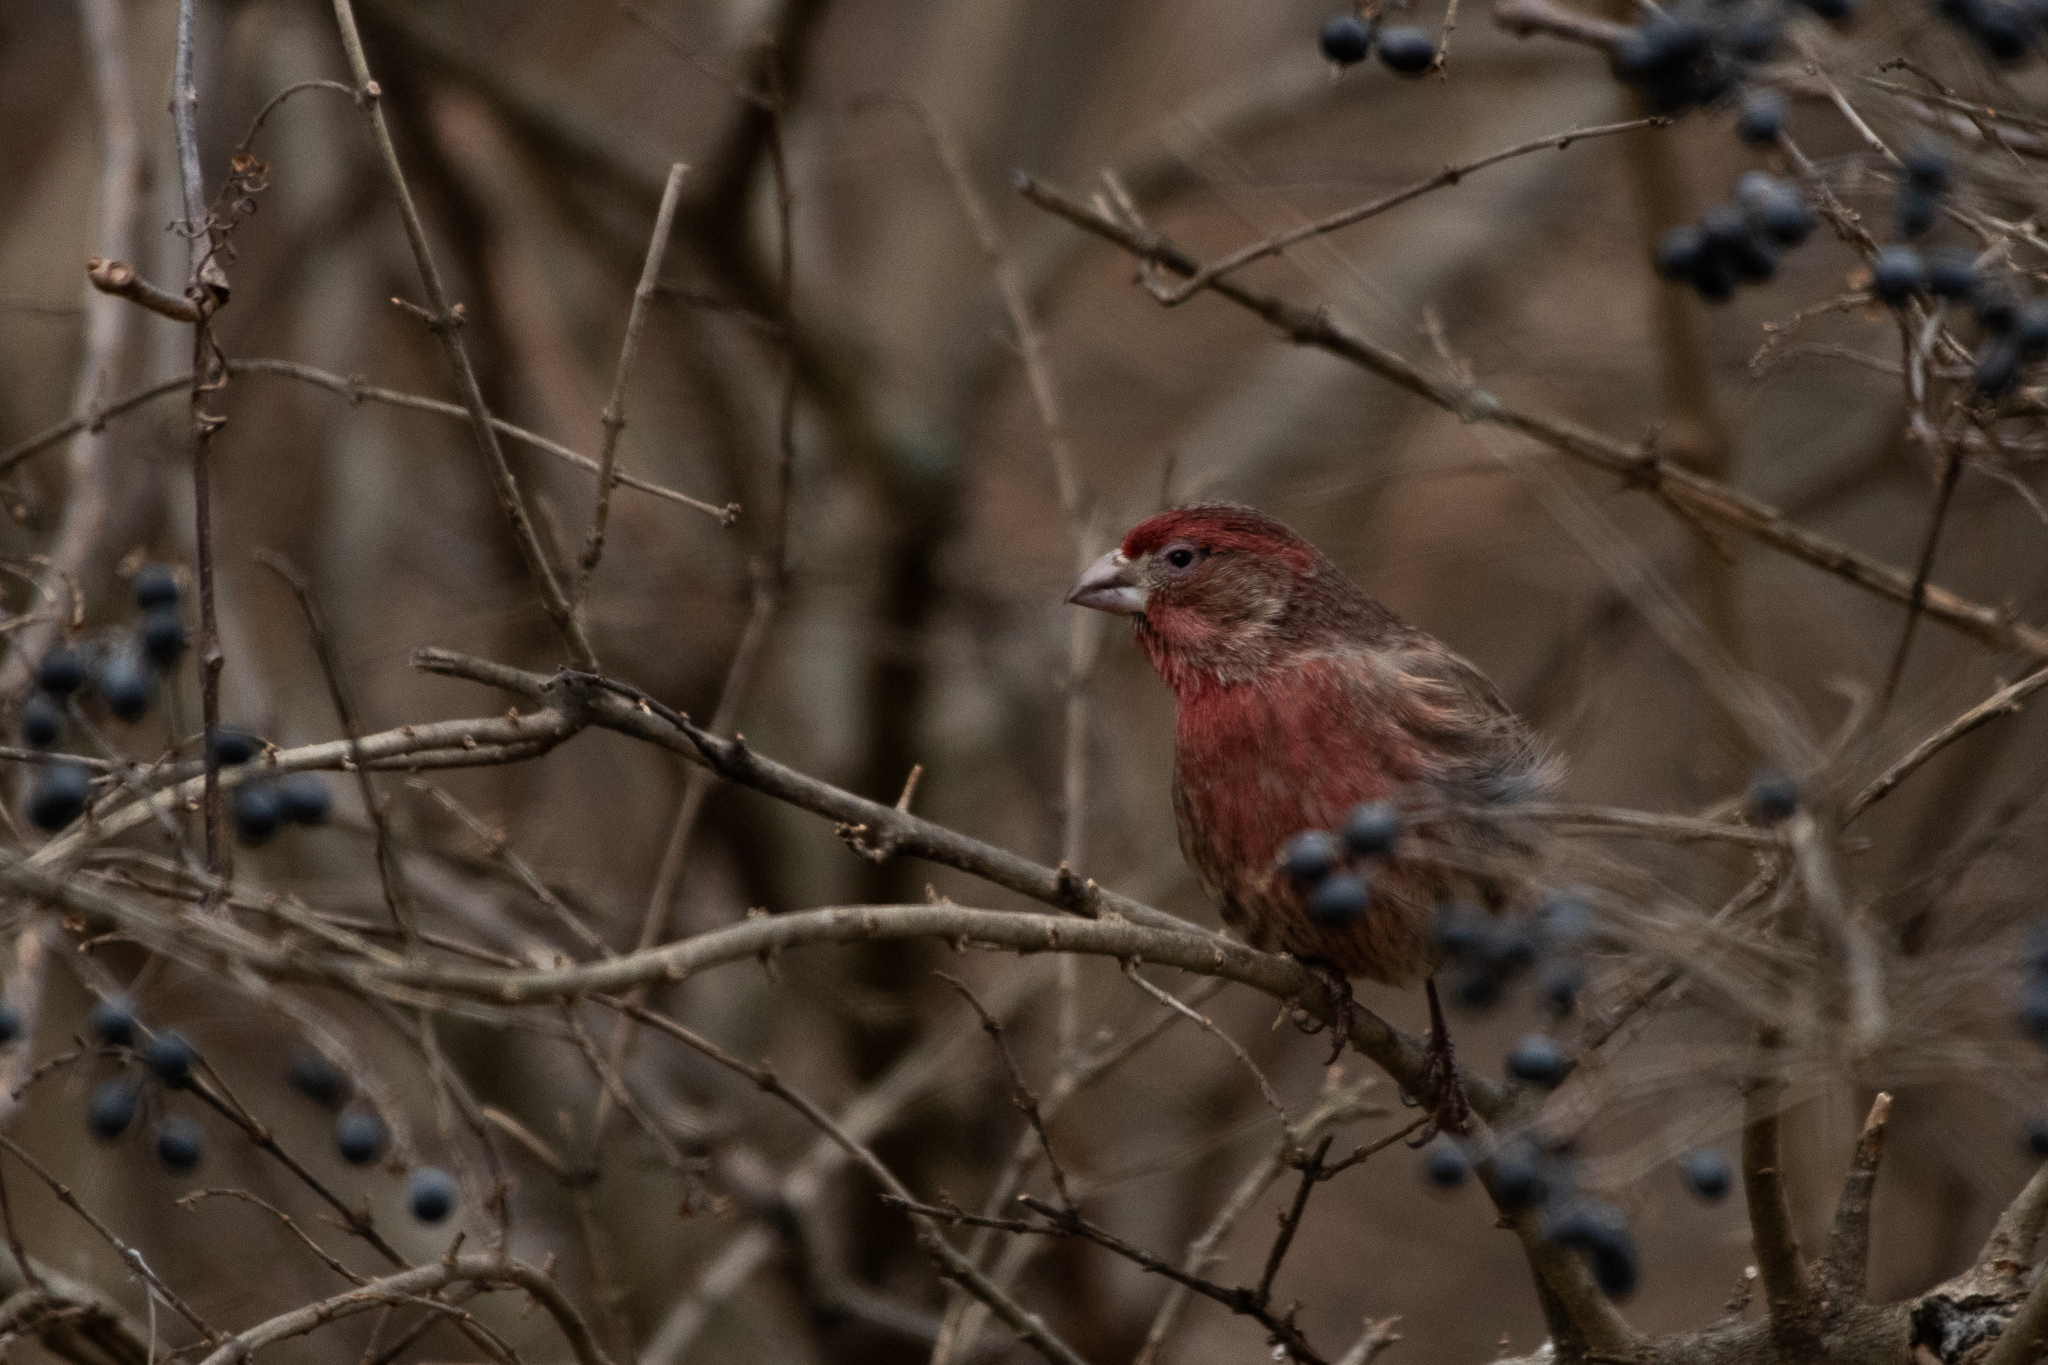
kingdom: Animalia
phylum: Chordata
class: Aves
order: Passeriformes
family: Fringillidae
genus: Haemorhous
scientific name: Haemorhous mexicanus
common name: House finch
